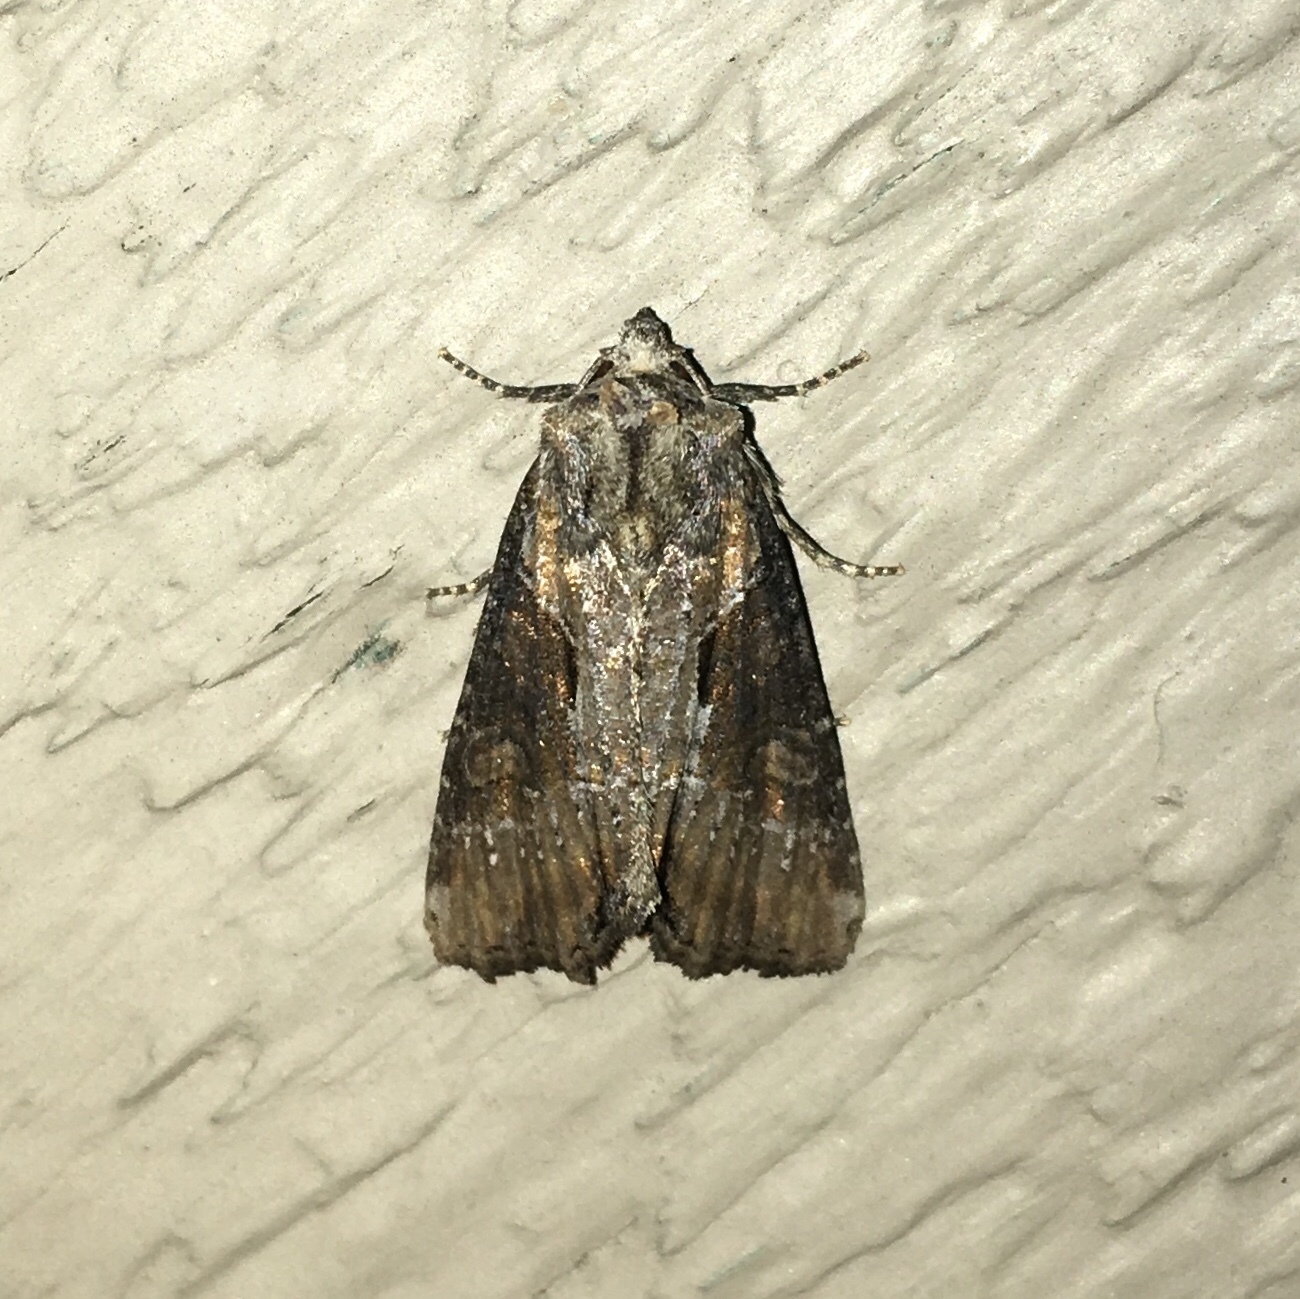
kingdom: Animalia
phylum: Arthropoda
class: Insecta
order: Lepidoptera
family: Noctuidae
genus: Lateroligia
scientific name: Lateroligia ophiogramma
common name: Double lobed
